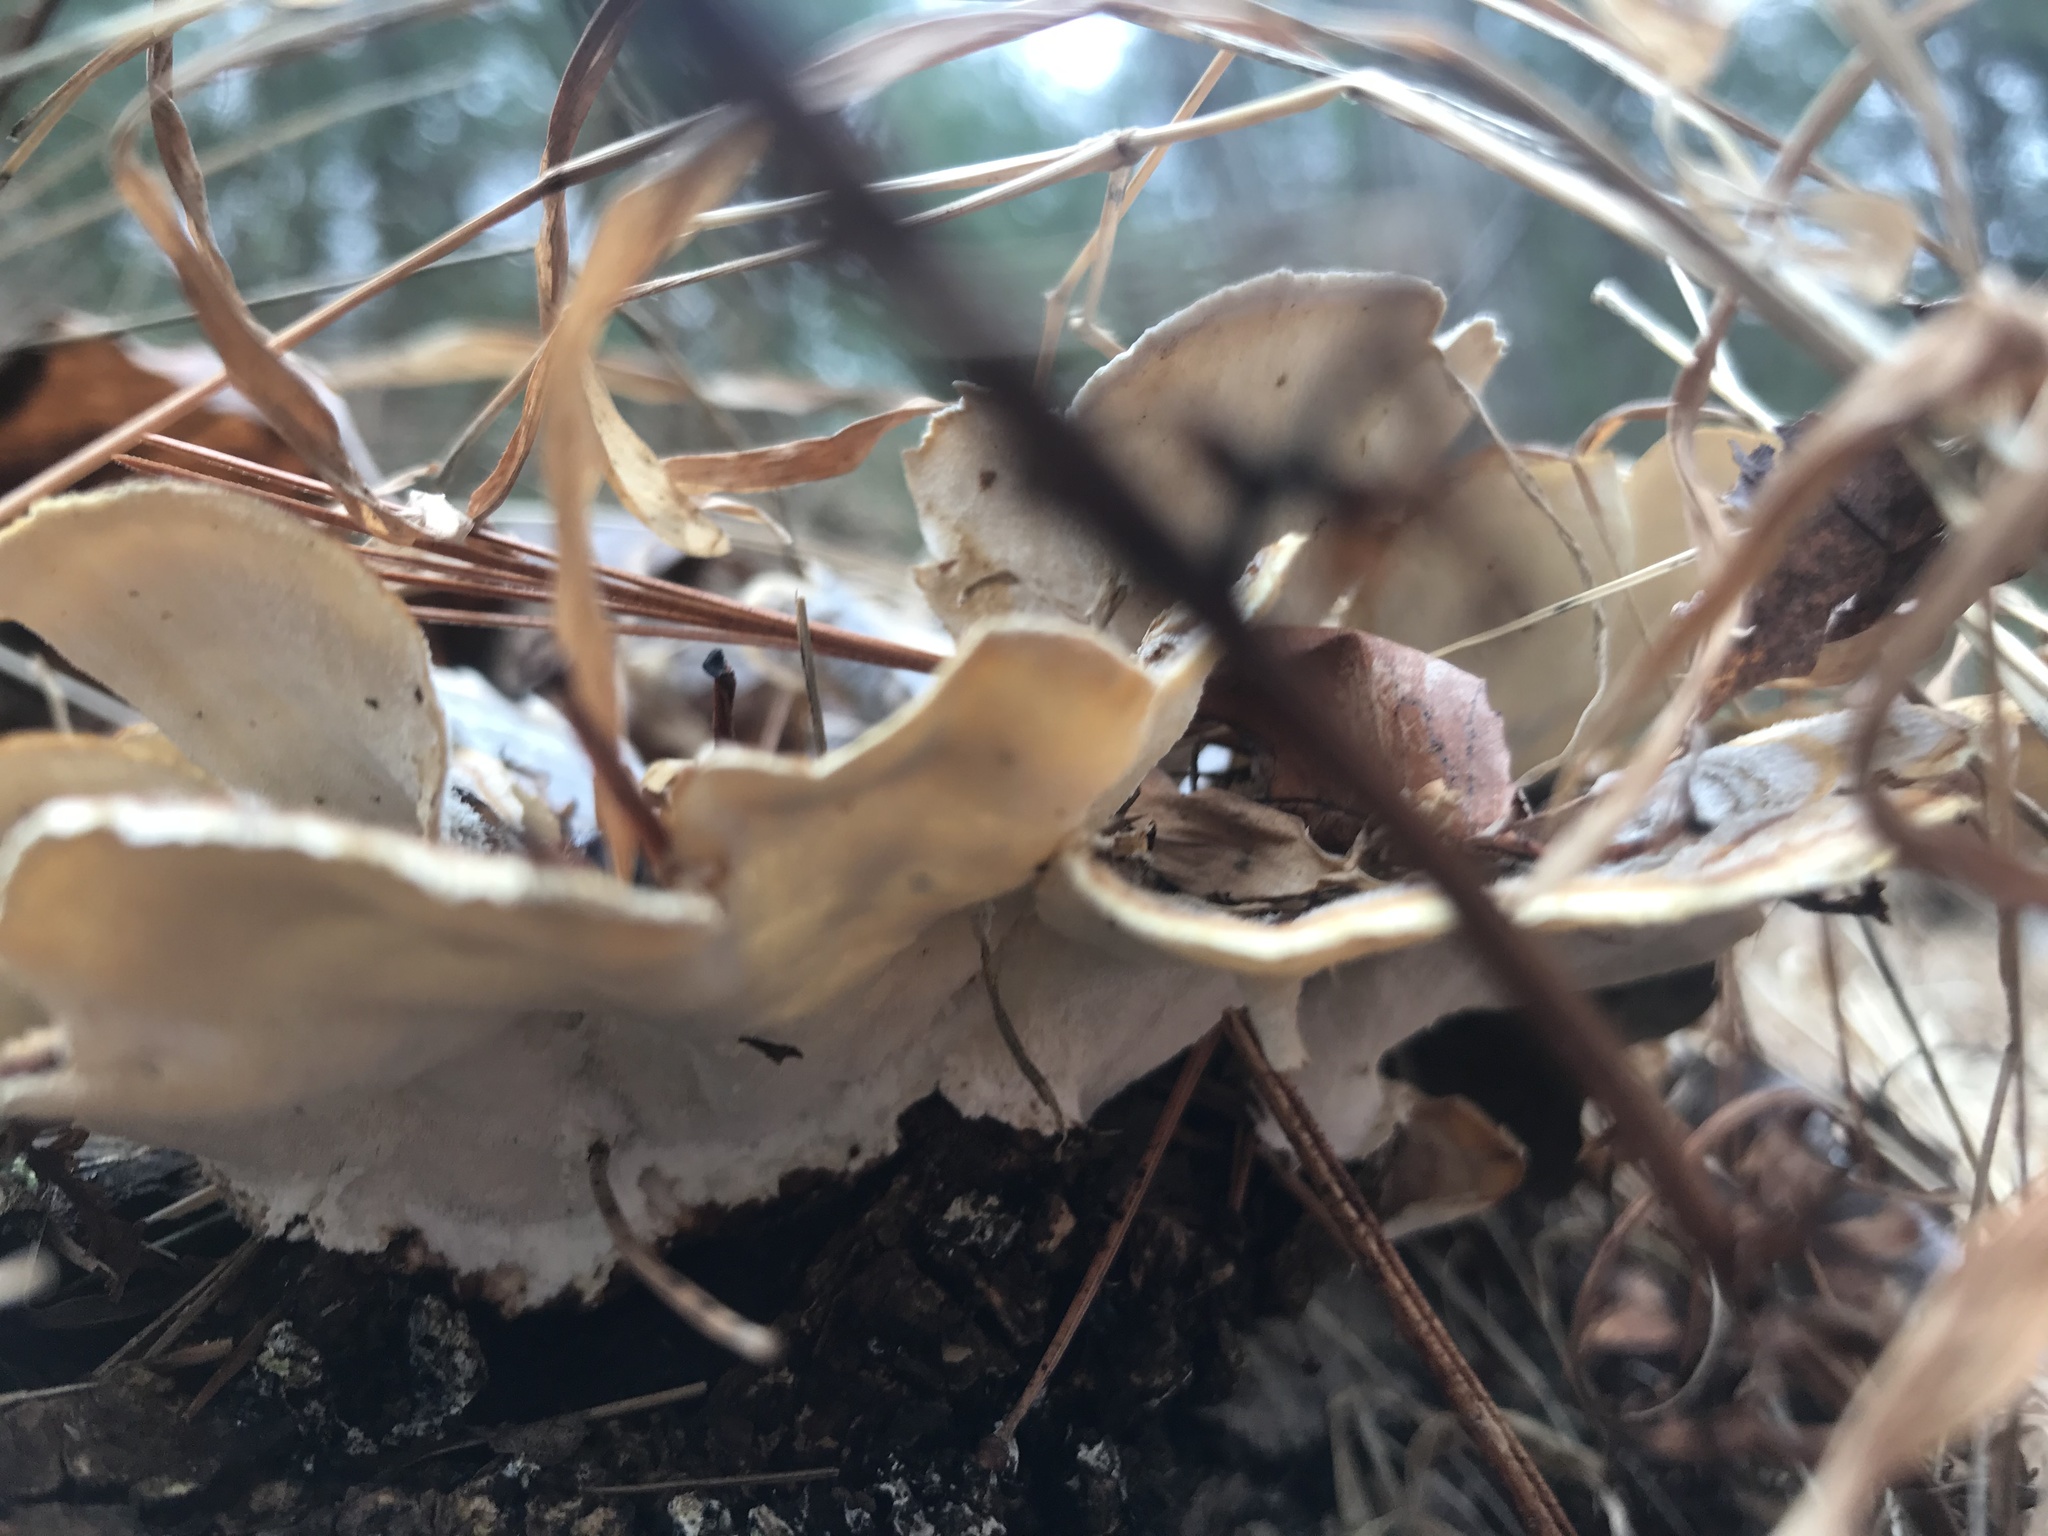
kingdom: Fungi
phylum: Basidiomycota
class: Agaricomycetes
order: Polyporales
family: Polyporaceae
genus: Trametes
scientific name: Trametes versicolor
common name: Turkeytail
